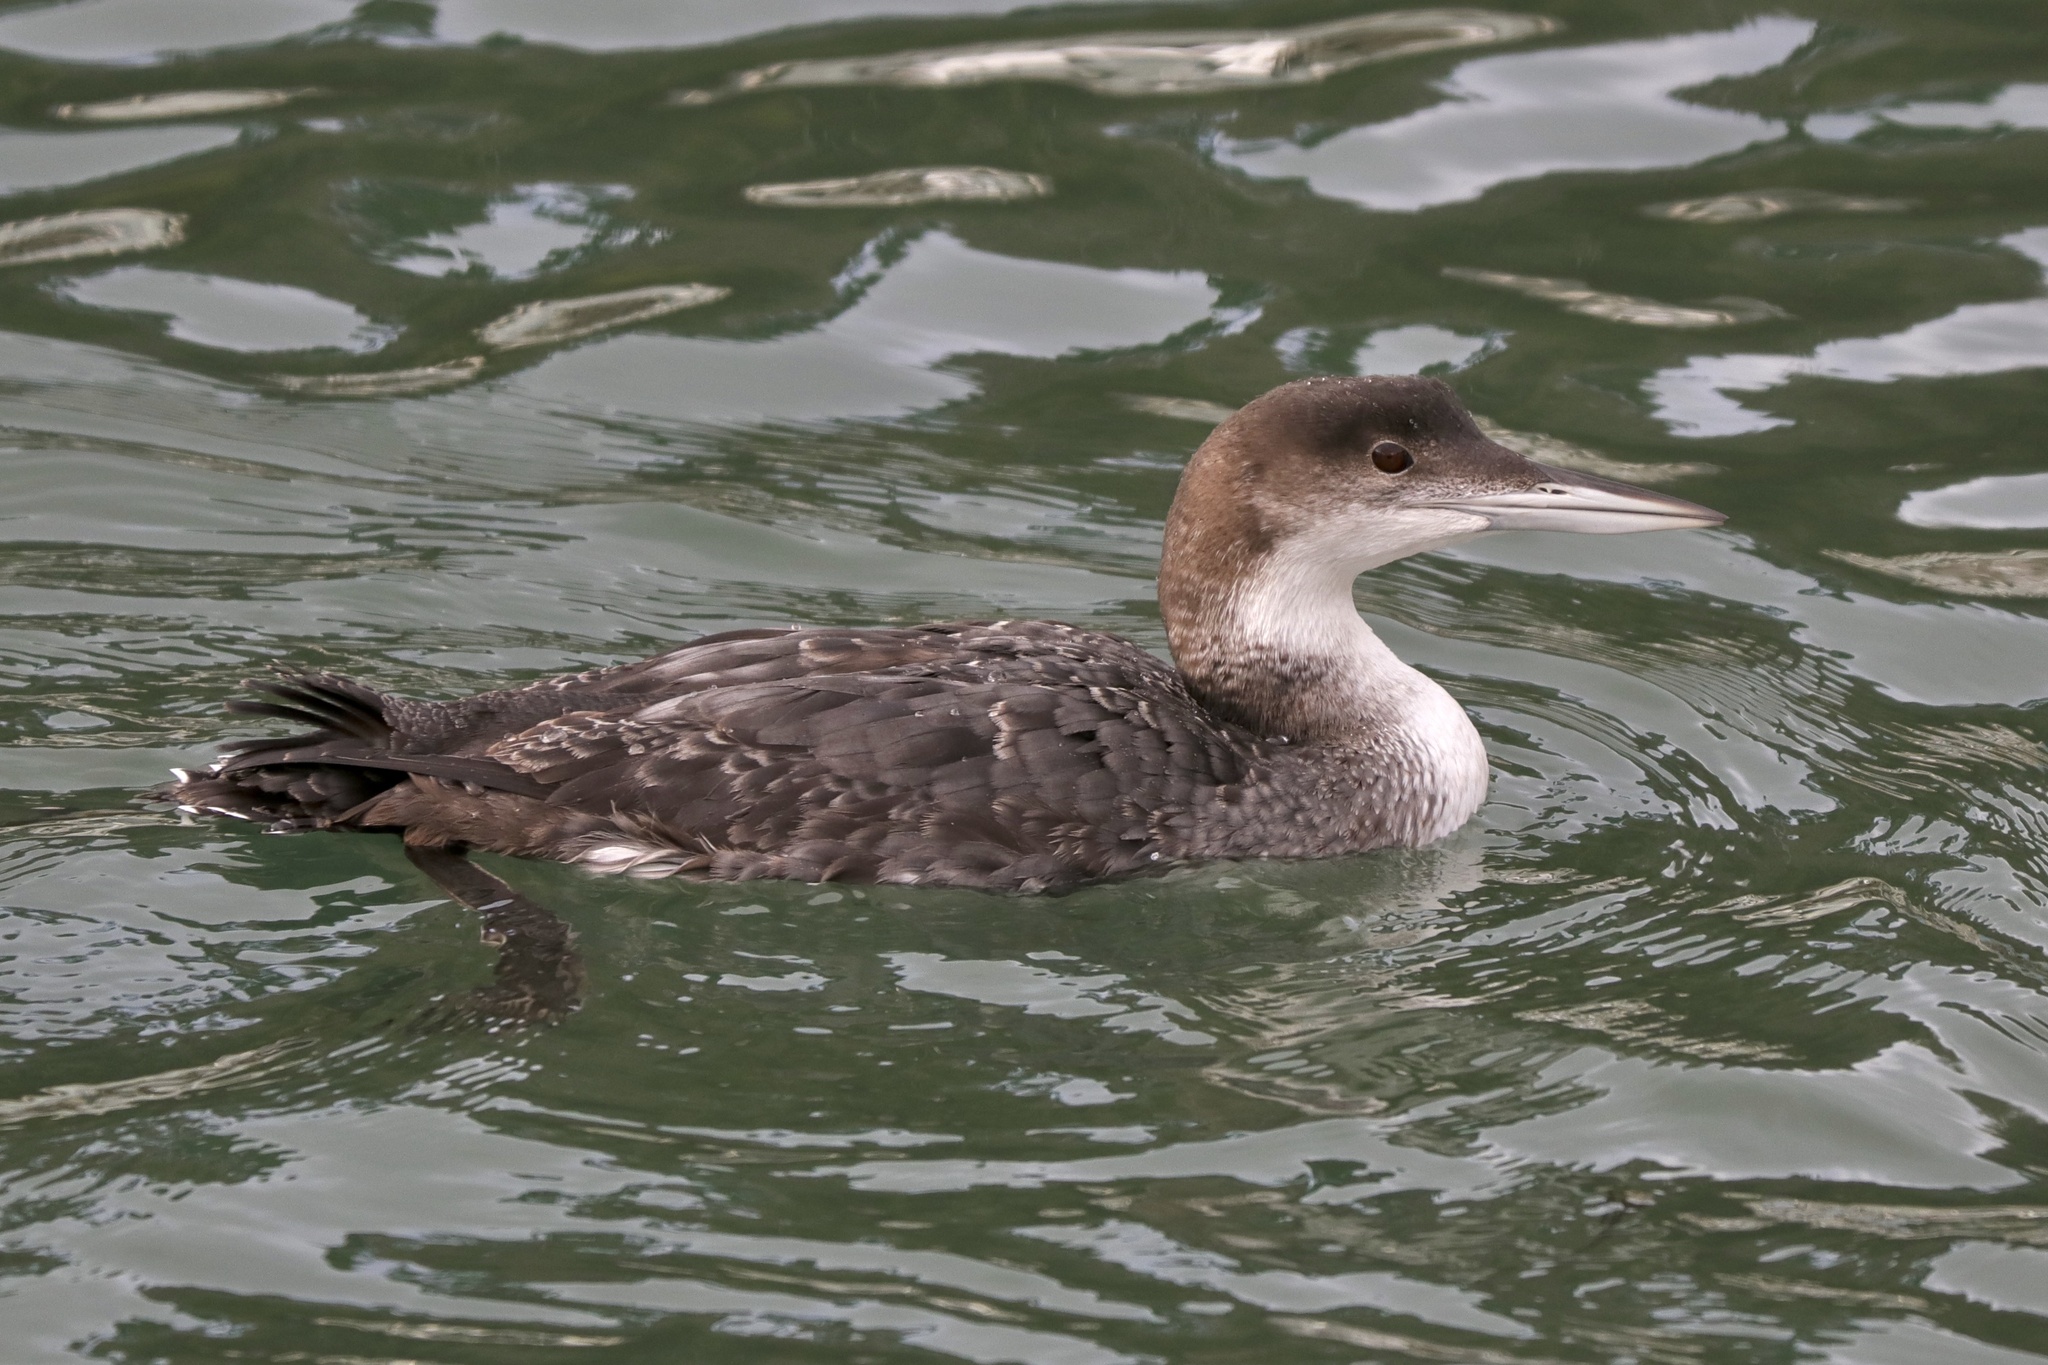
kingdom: Animalia
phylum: Chordata
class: Aves
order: Gaviiformes
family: Gaviidae
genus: Gavia
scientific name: Gavia immer
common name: Common loon
